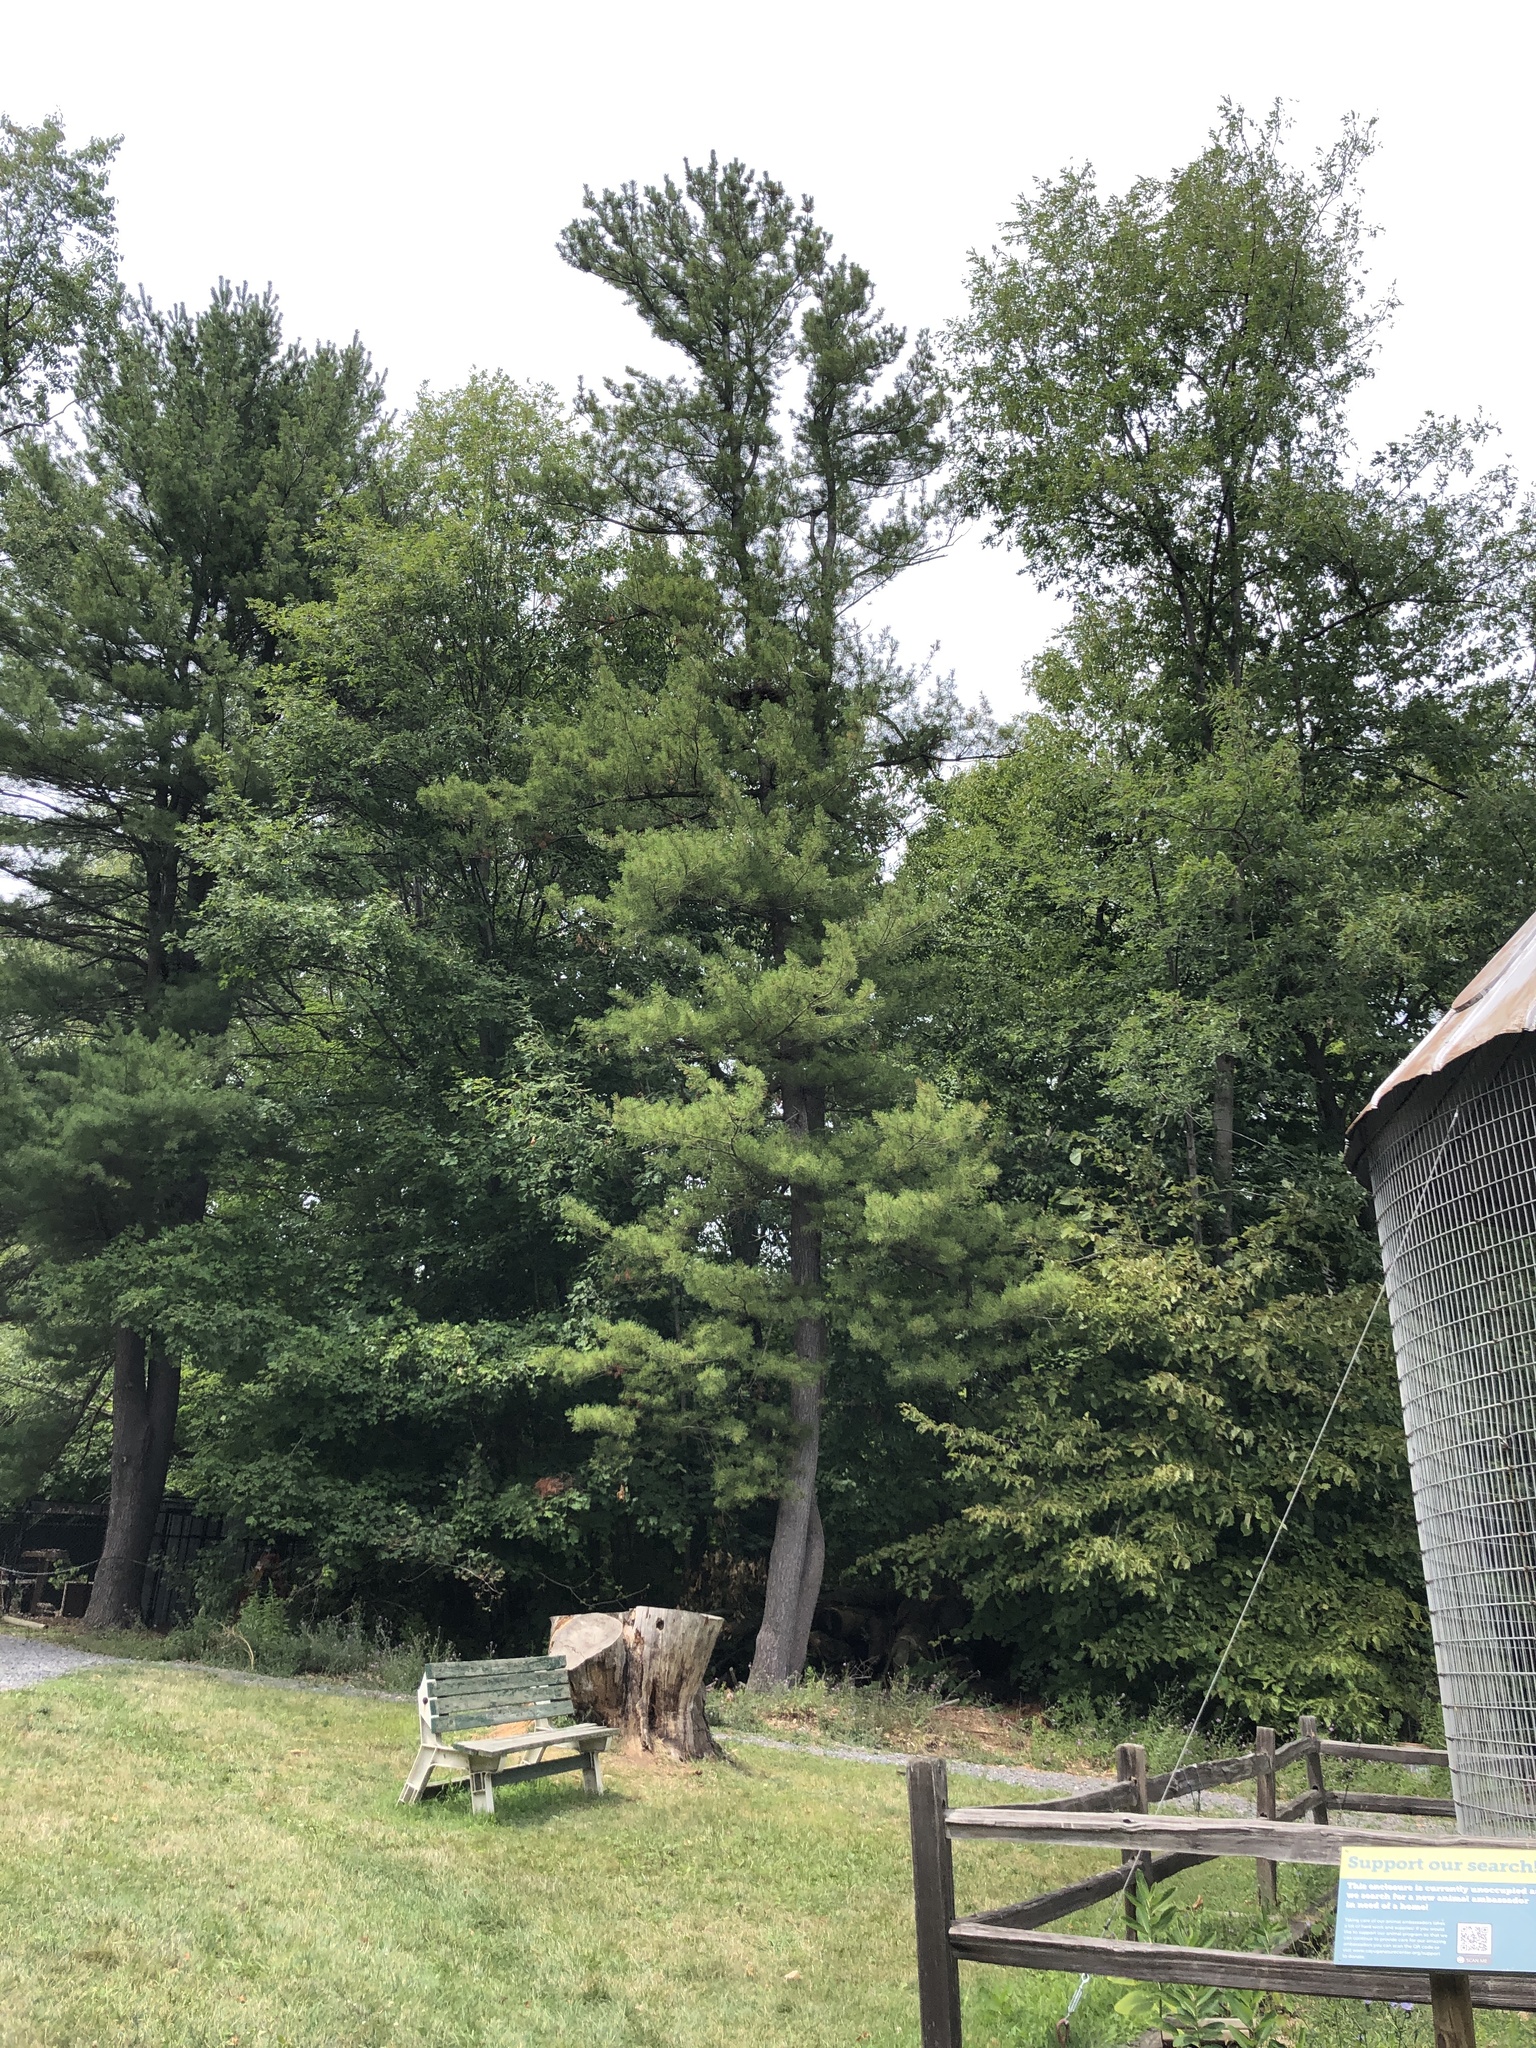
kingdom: Plantae
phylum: Tracheophyta
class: Pinopsida
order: Pinales
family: Pinaceae
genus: Pinus
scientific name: Pinus strobus
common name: Weymouth pine
